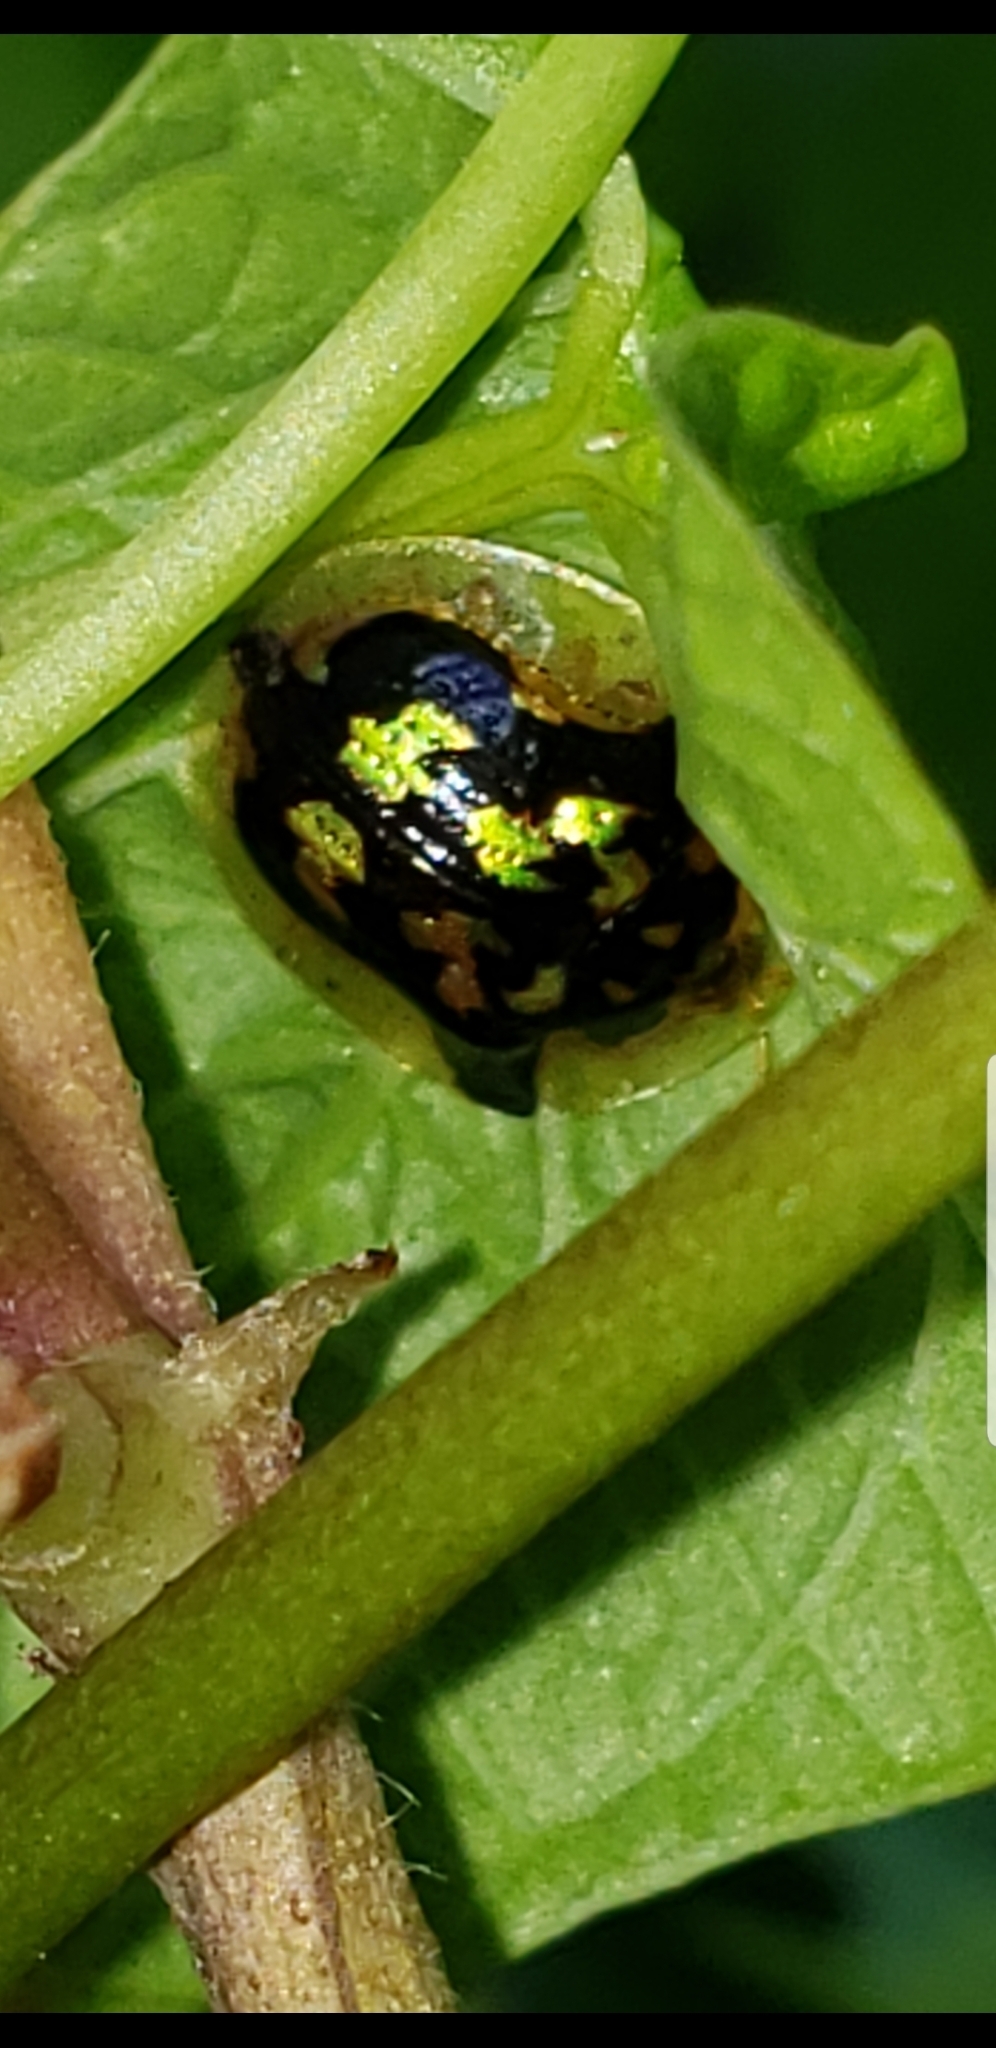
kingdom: Animalia
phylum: Arthropoda
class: Insecta
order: Coleoptera
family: Chrysomelidae
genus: Deloyala
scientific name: Deloyala guttata
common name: Mottled tortoise beetle
